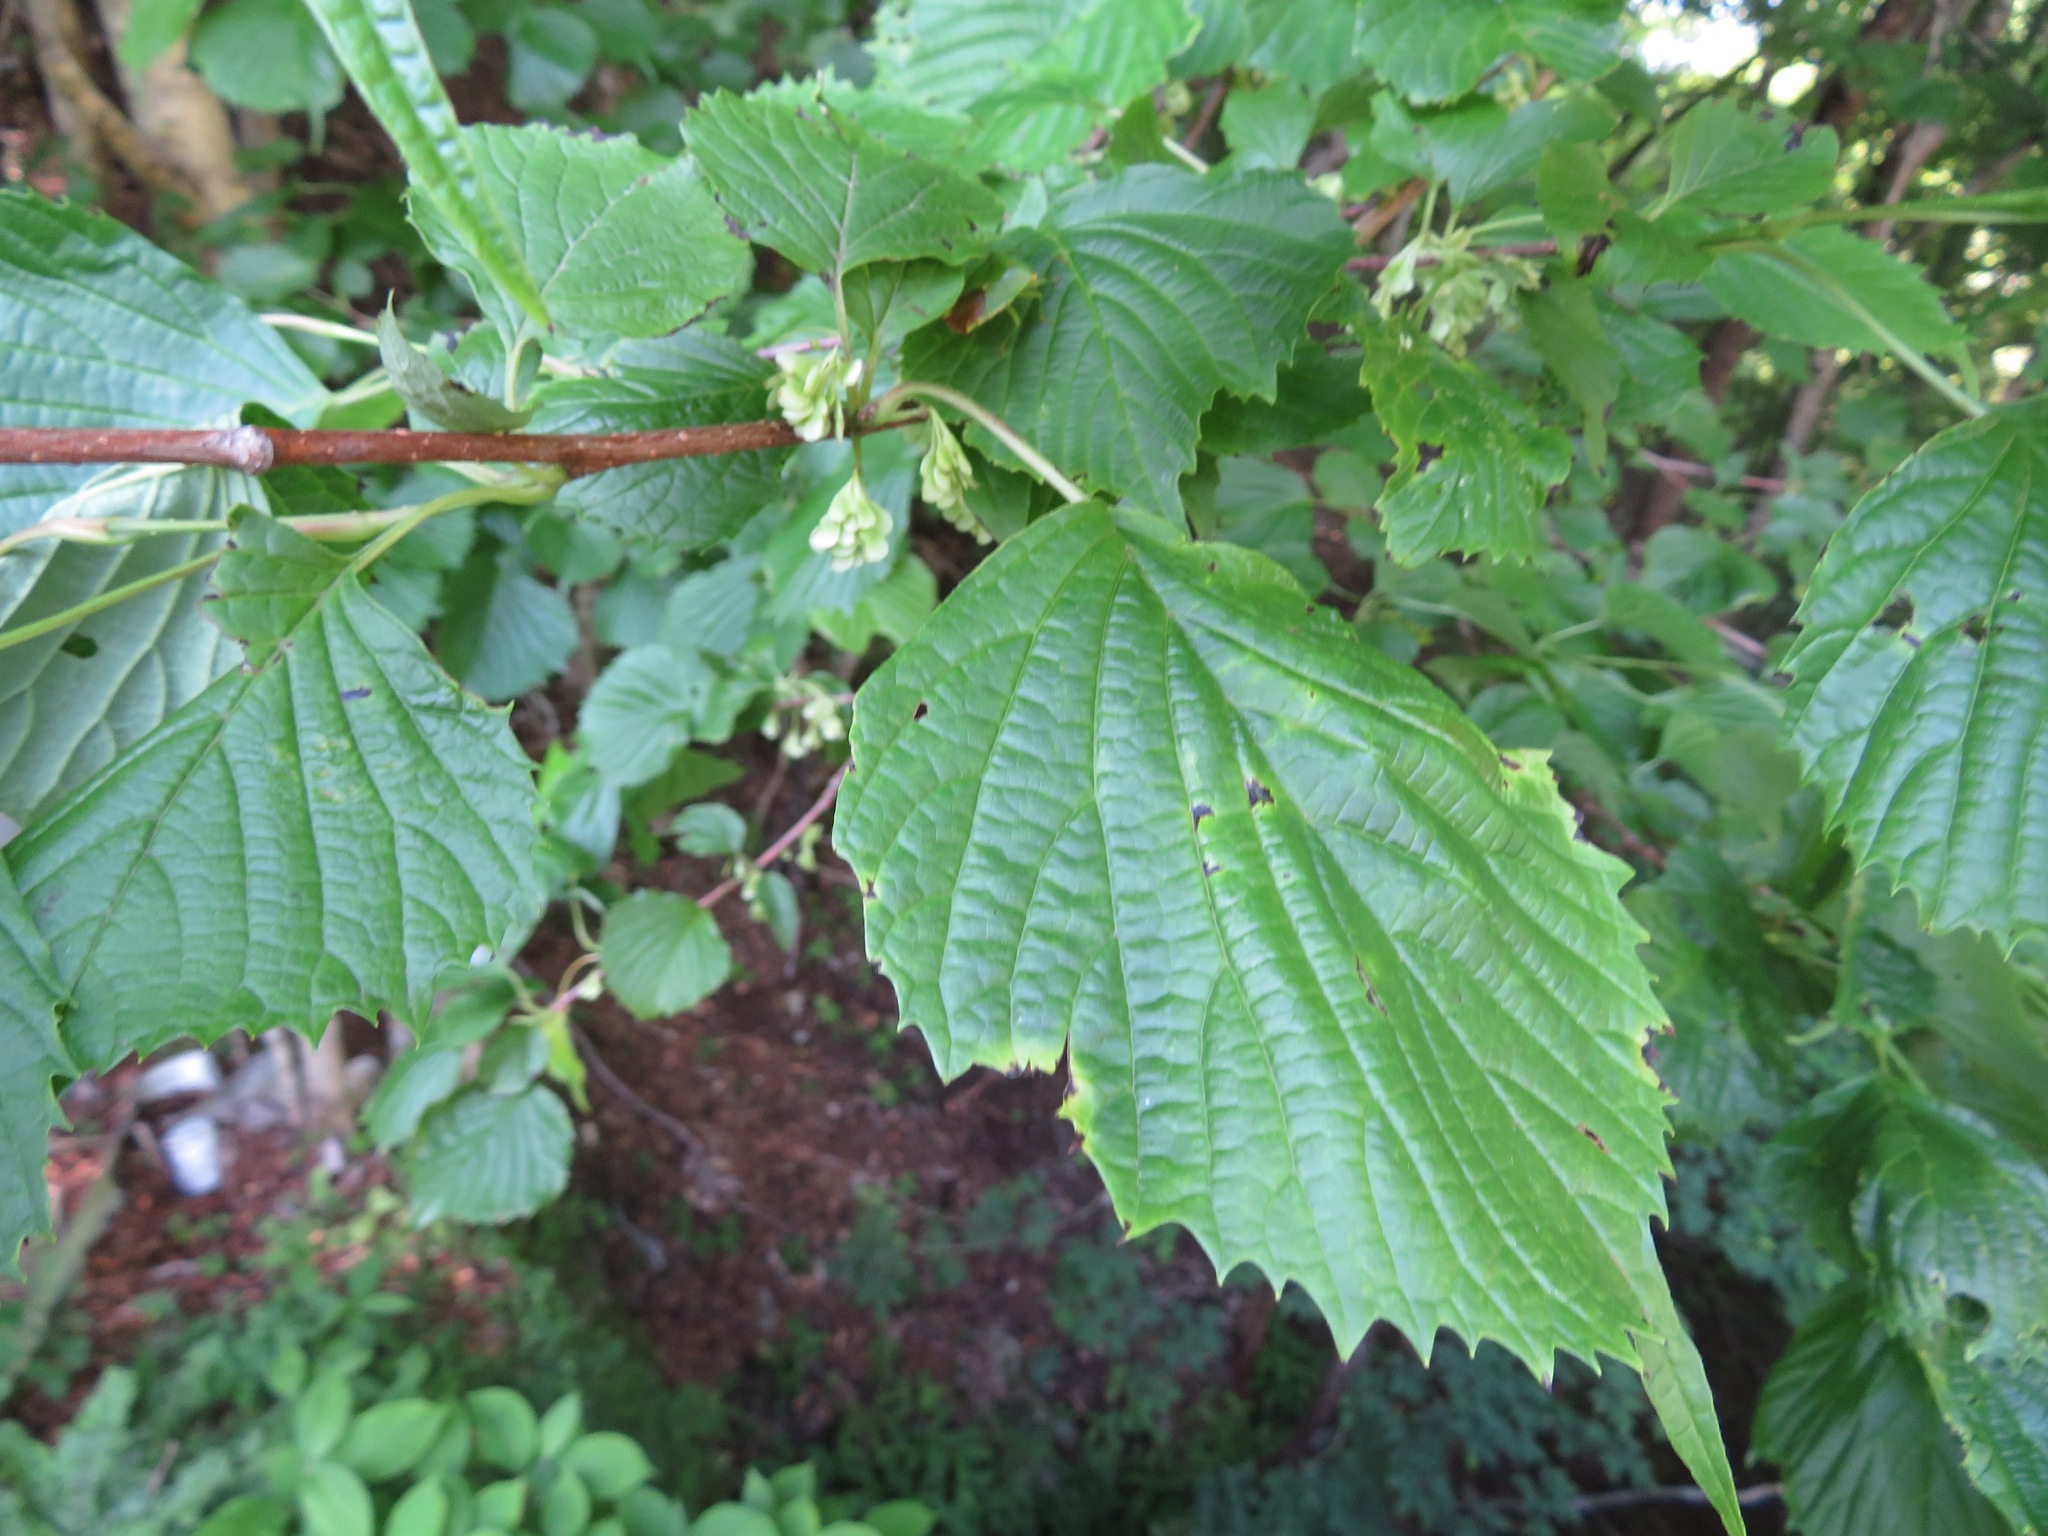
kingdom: Plantae
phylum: Tracheophyta
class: Magnoliopsida
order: Ranunculales
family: Eupteleaceae
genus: Euptelea
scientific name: Euptelea polyandra
